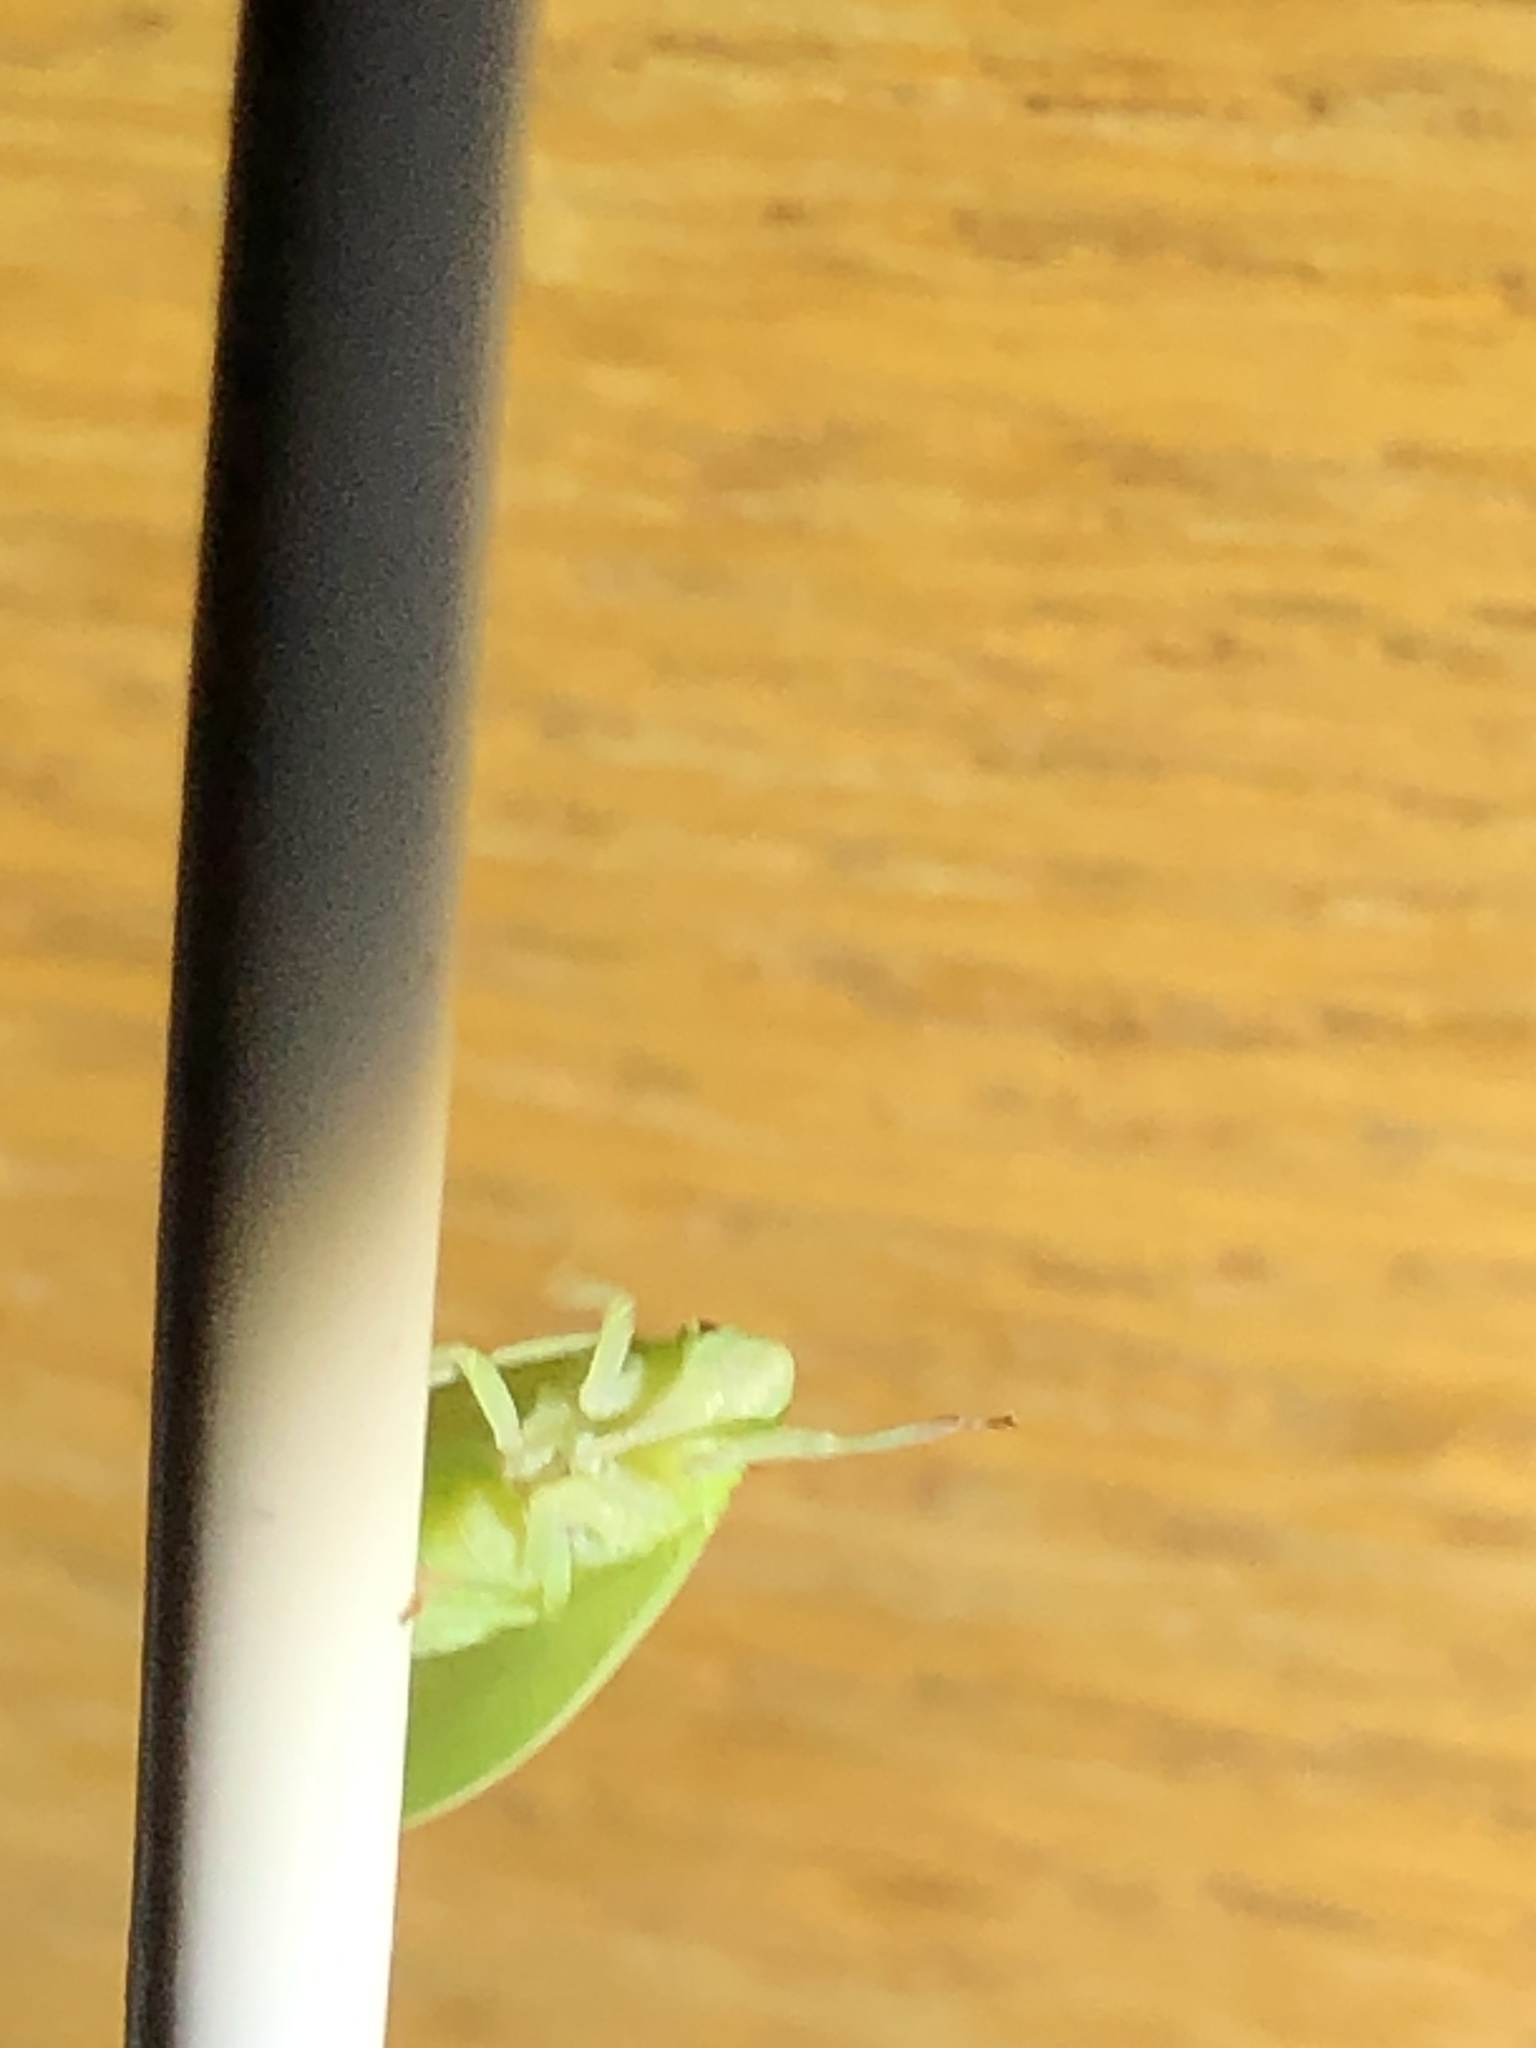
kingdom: Animalia
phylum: Arthropoda
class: Insecta
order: Hemiptera
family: Acanaloniidae
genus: Acanalonia
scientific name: Acanalonia conica
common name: Green cone-headed planthopper
